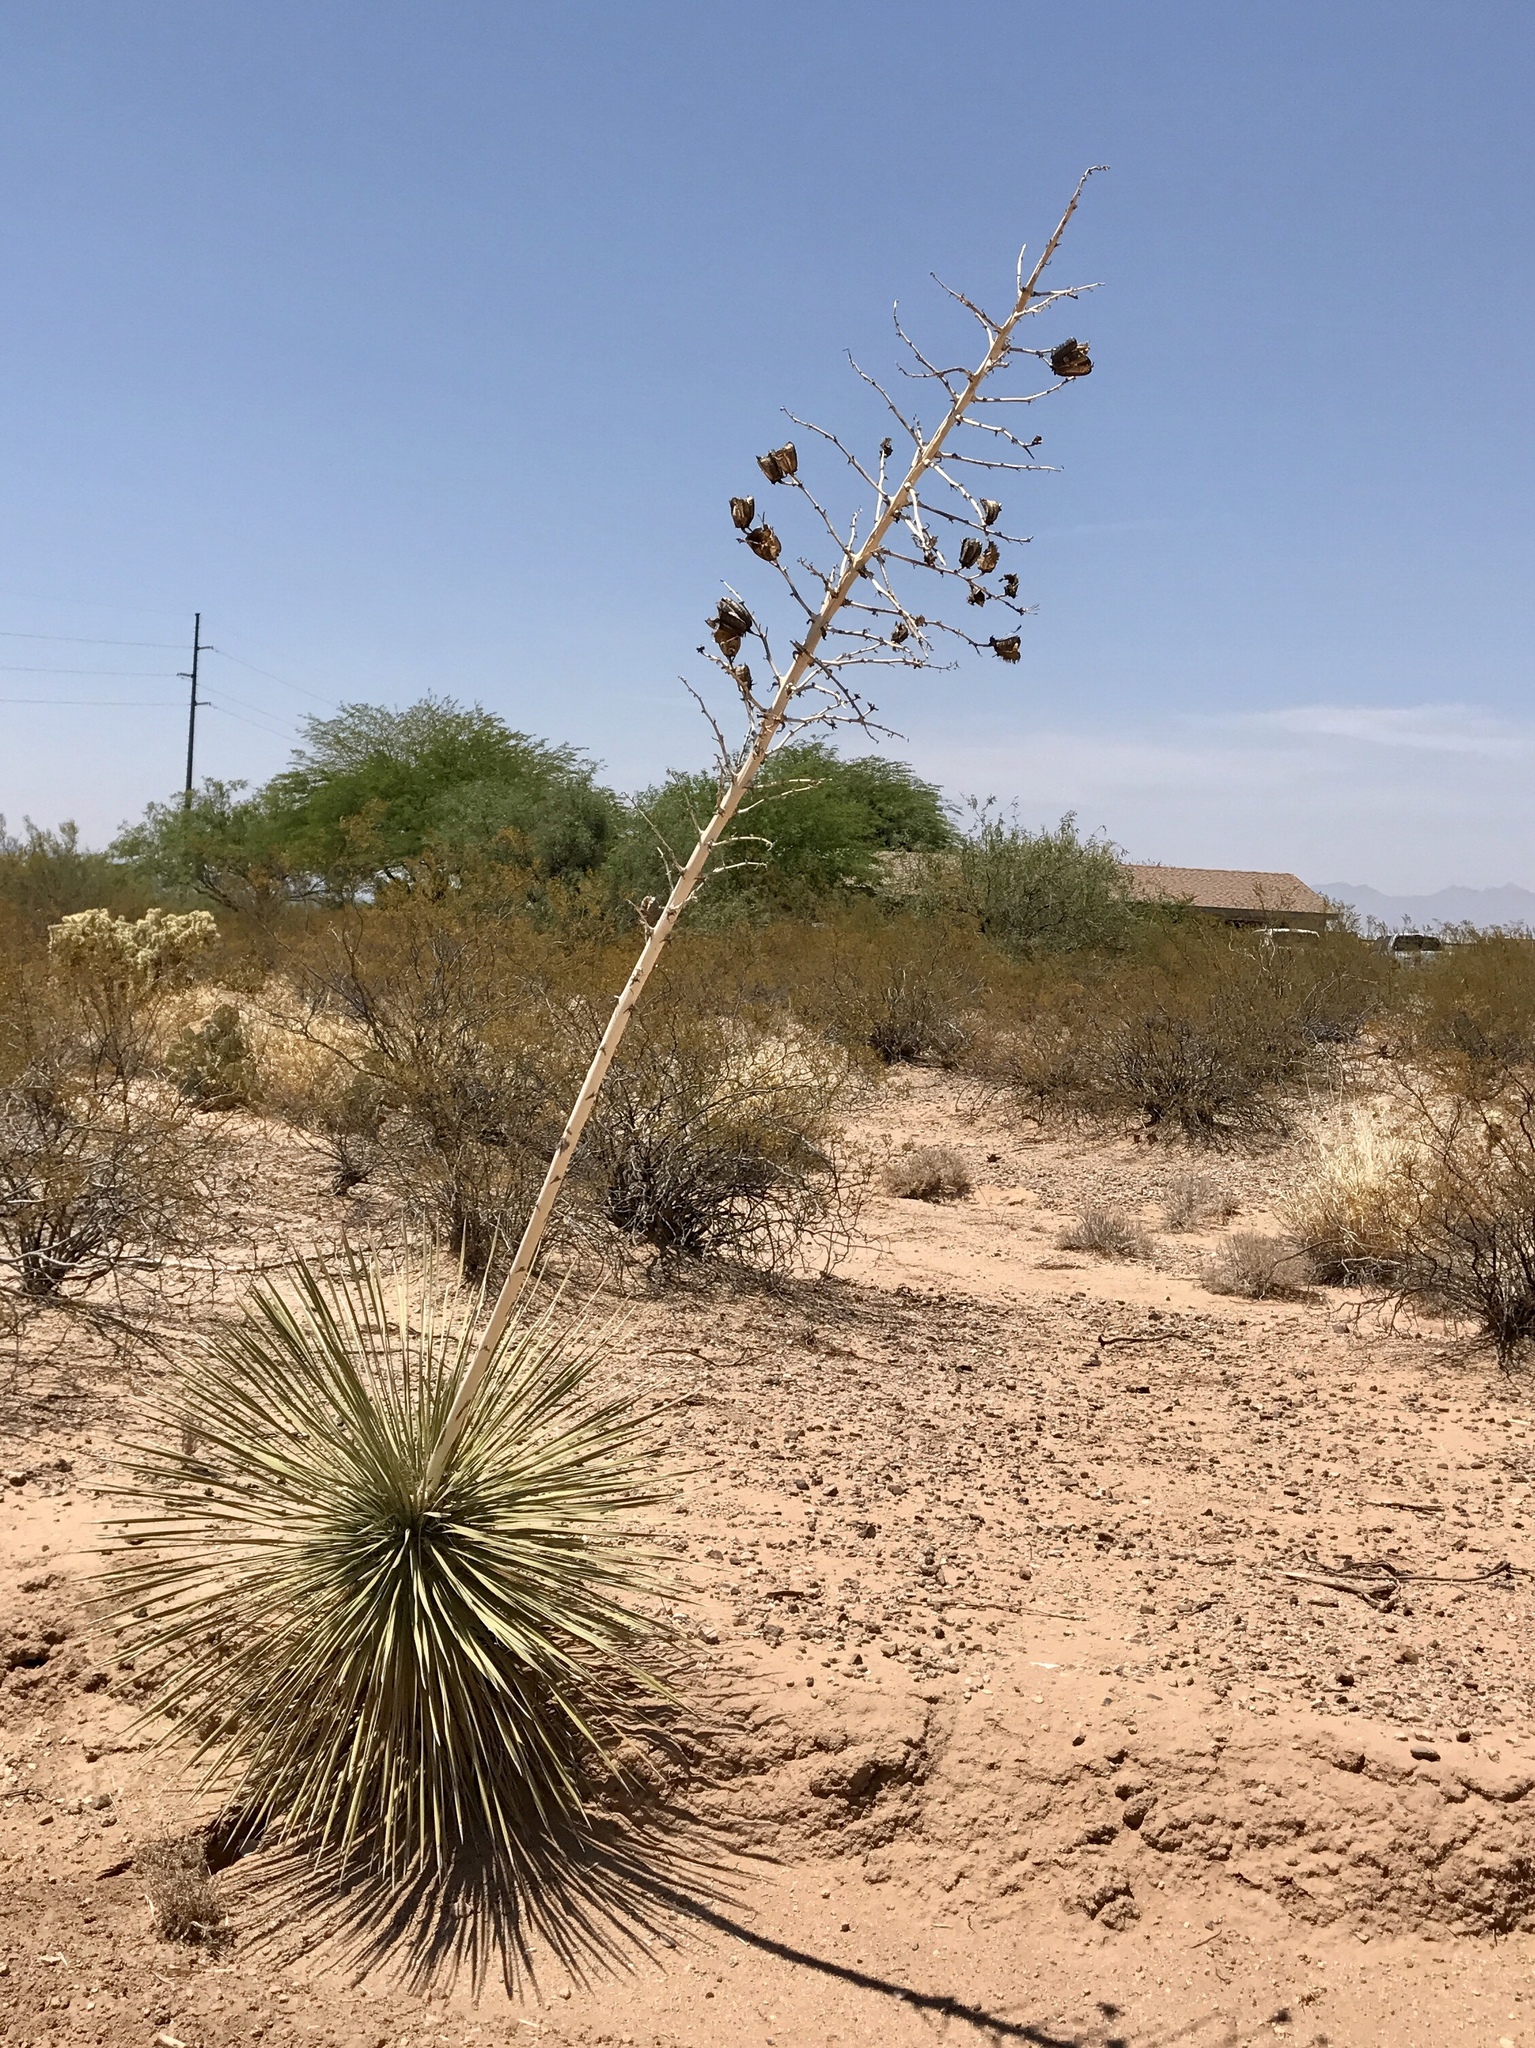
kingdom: Plantae
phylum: Tracheophyta
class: Liliopsida
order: Asparagales
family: Asparagaceae
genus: Yucca
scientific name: Yucca elata
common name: Palmella
